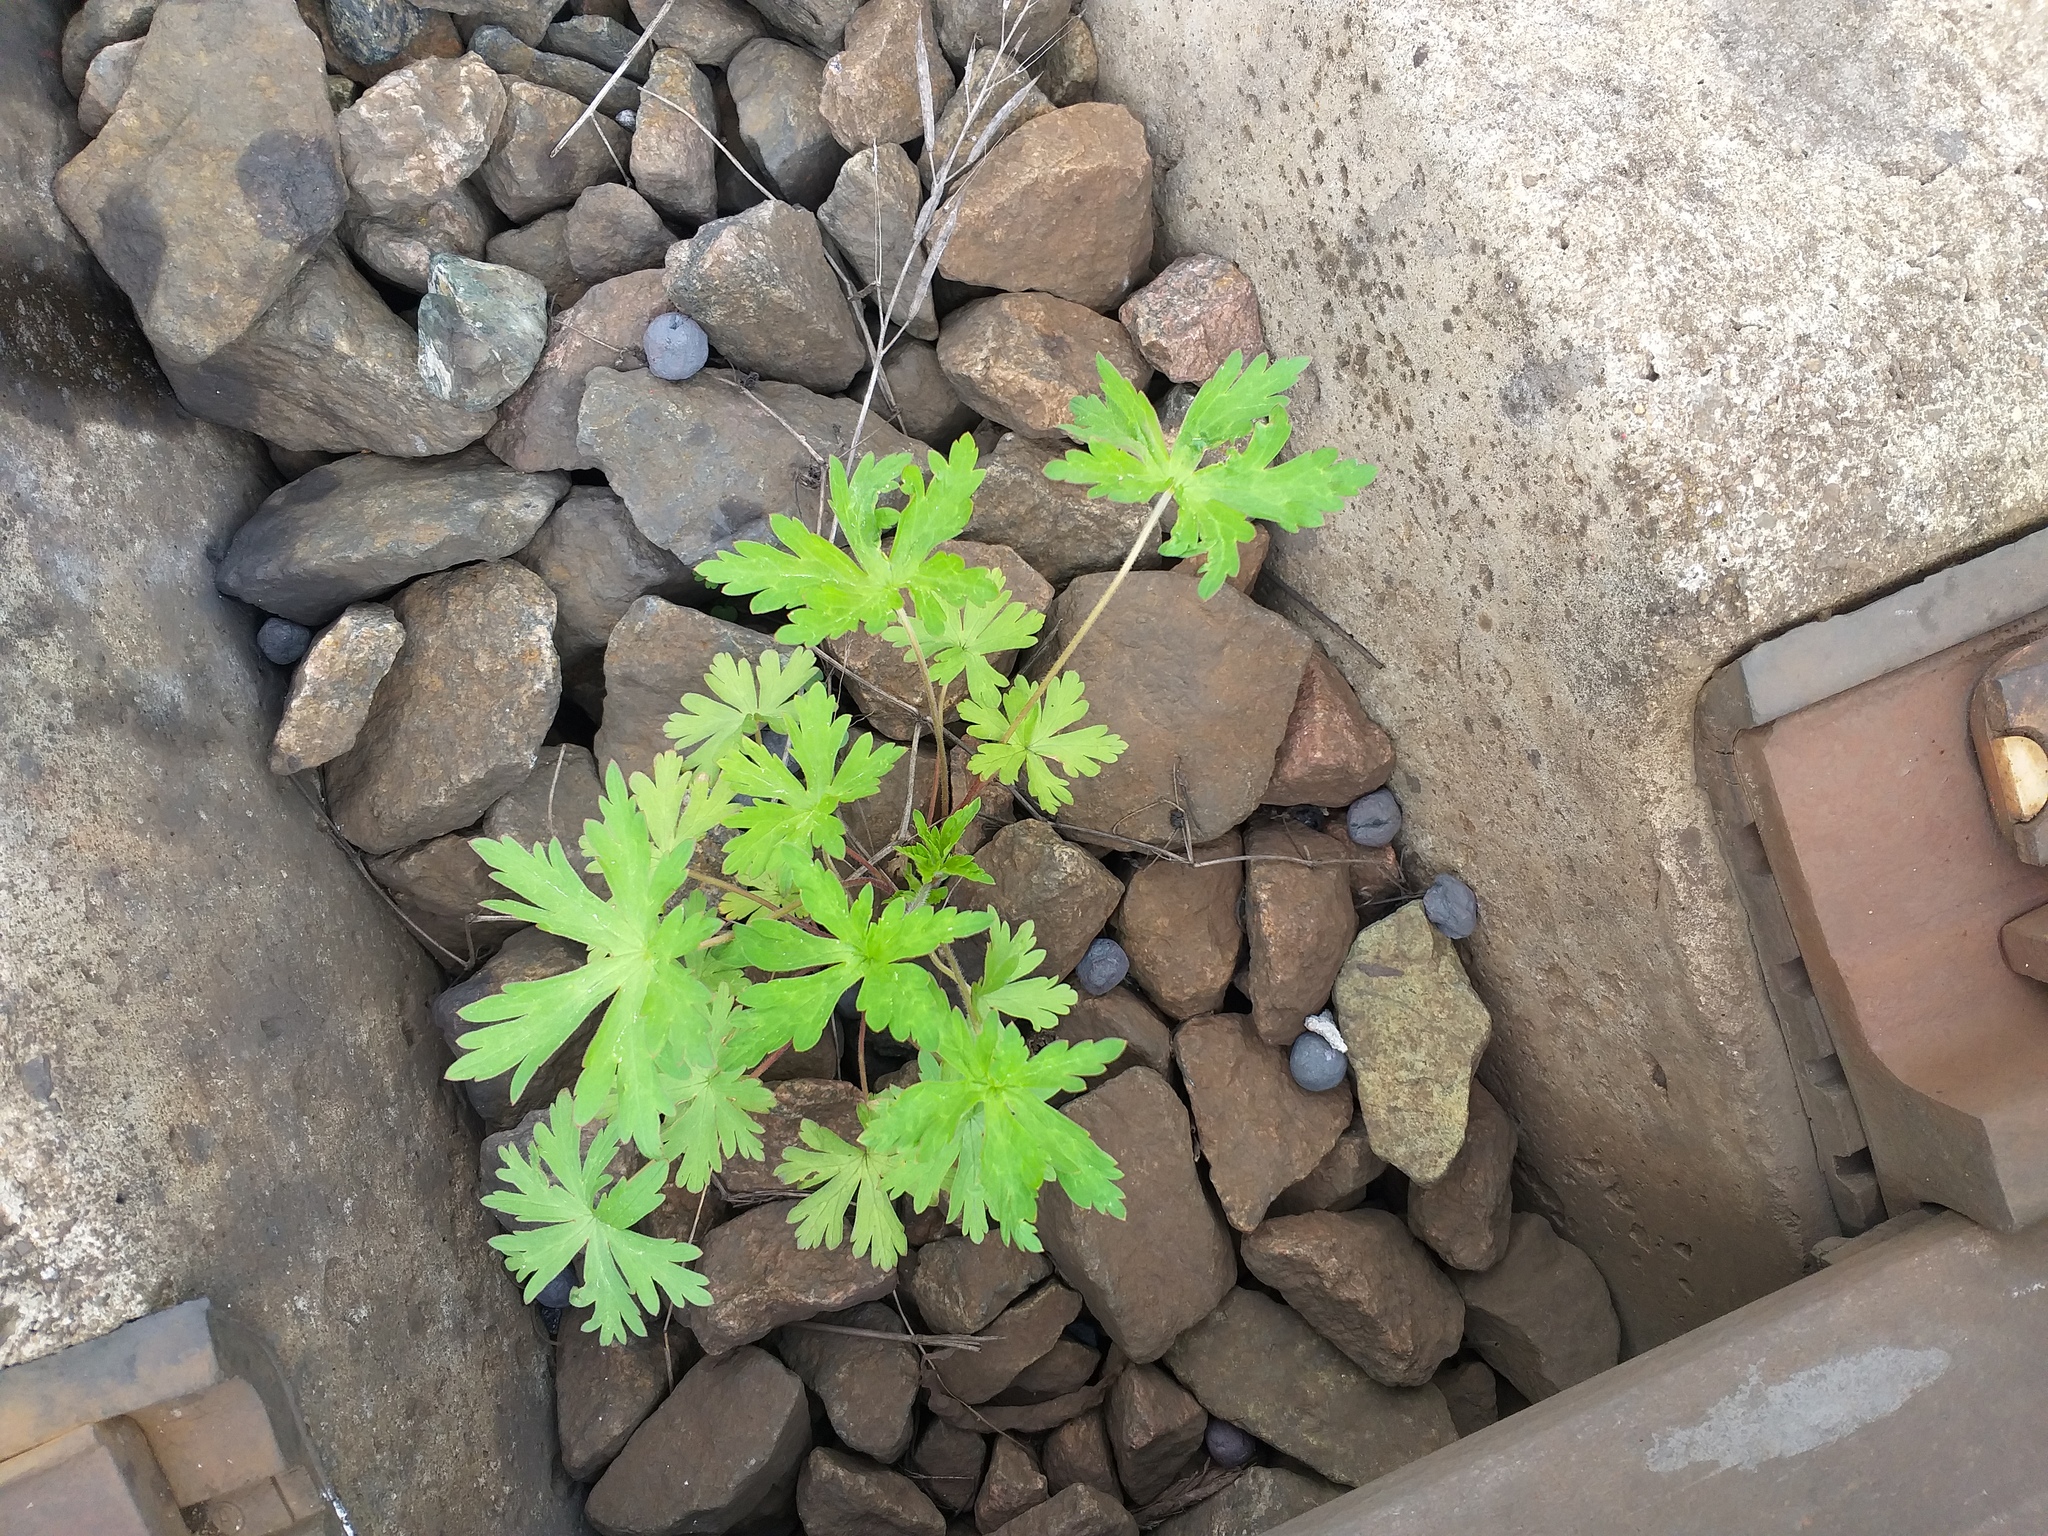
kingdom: Plantae
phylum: Tracheophyta
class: Magnoliopsida
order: Geraniales
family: Geraniaceae
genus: Geranium
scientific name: Geranium sibiricum
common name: Siberian crane's-bill
